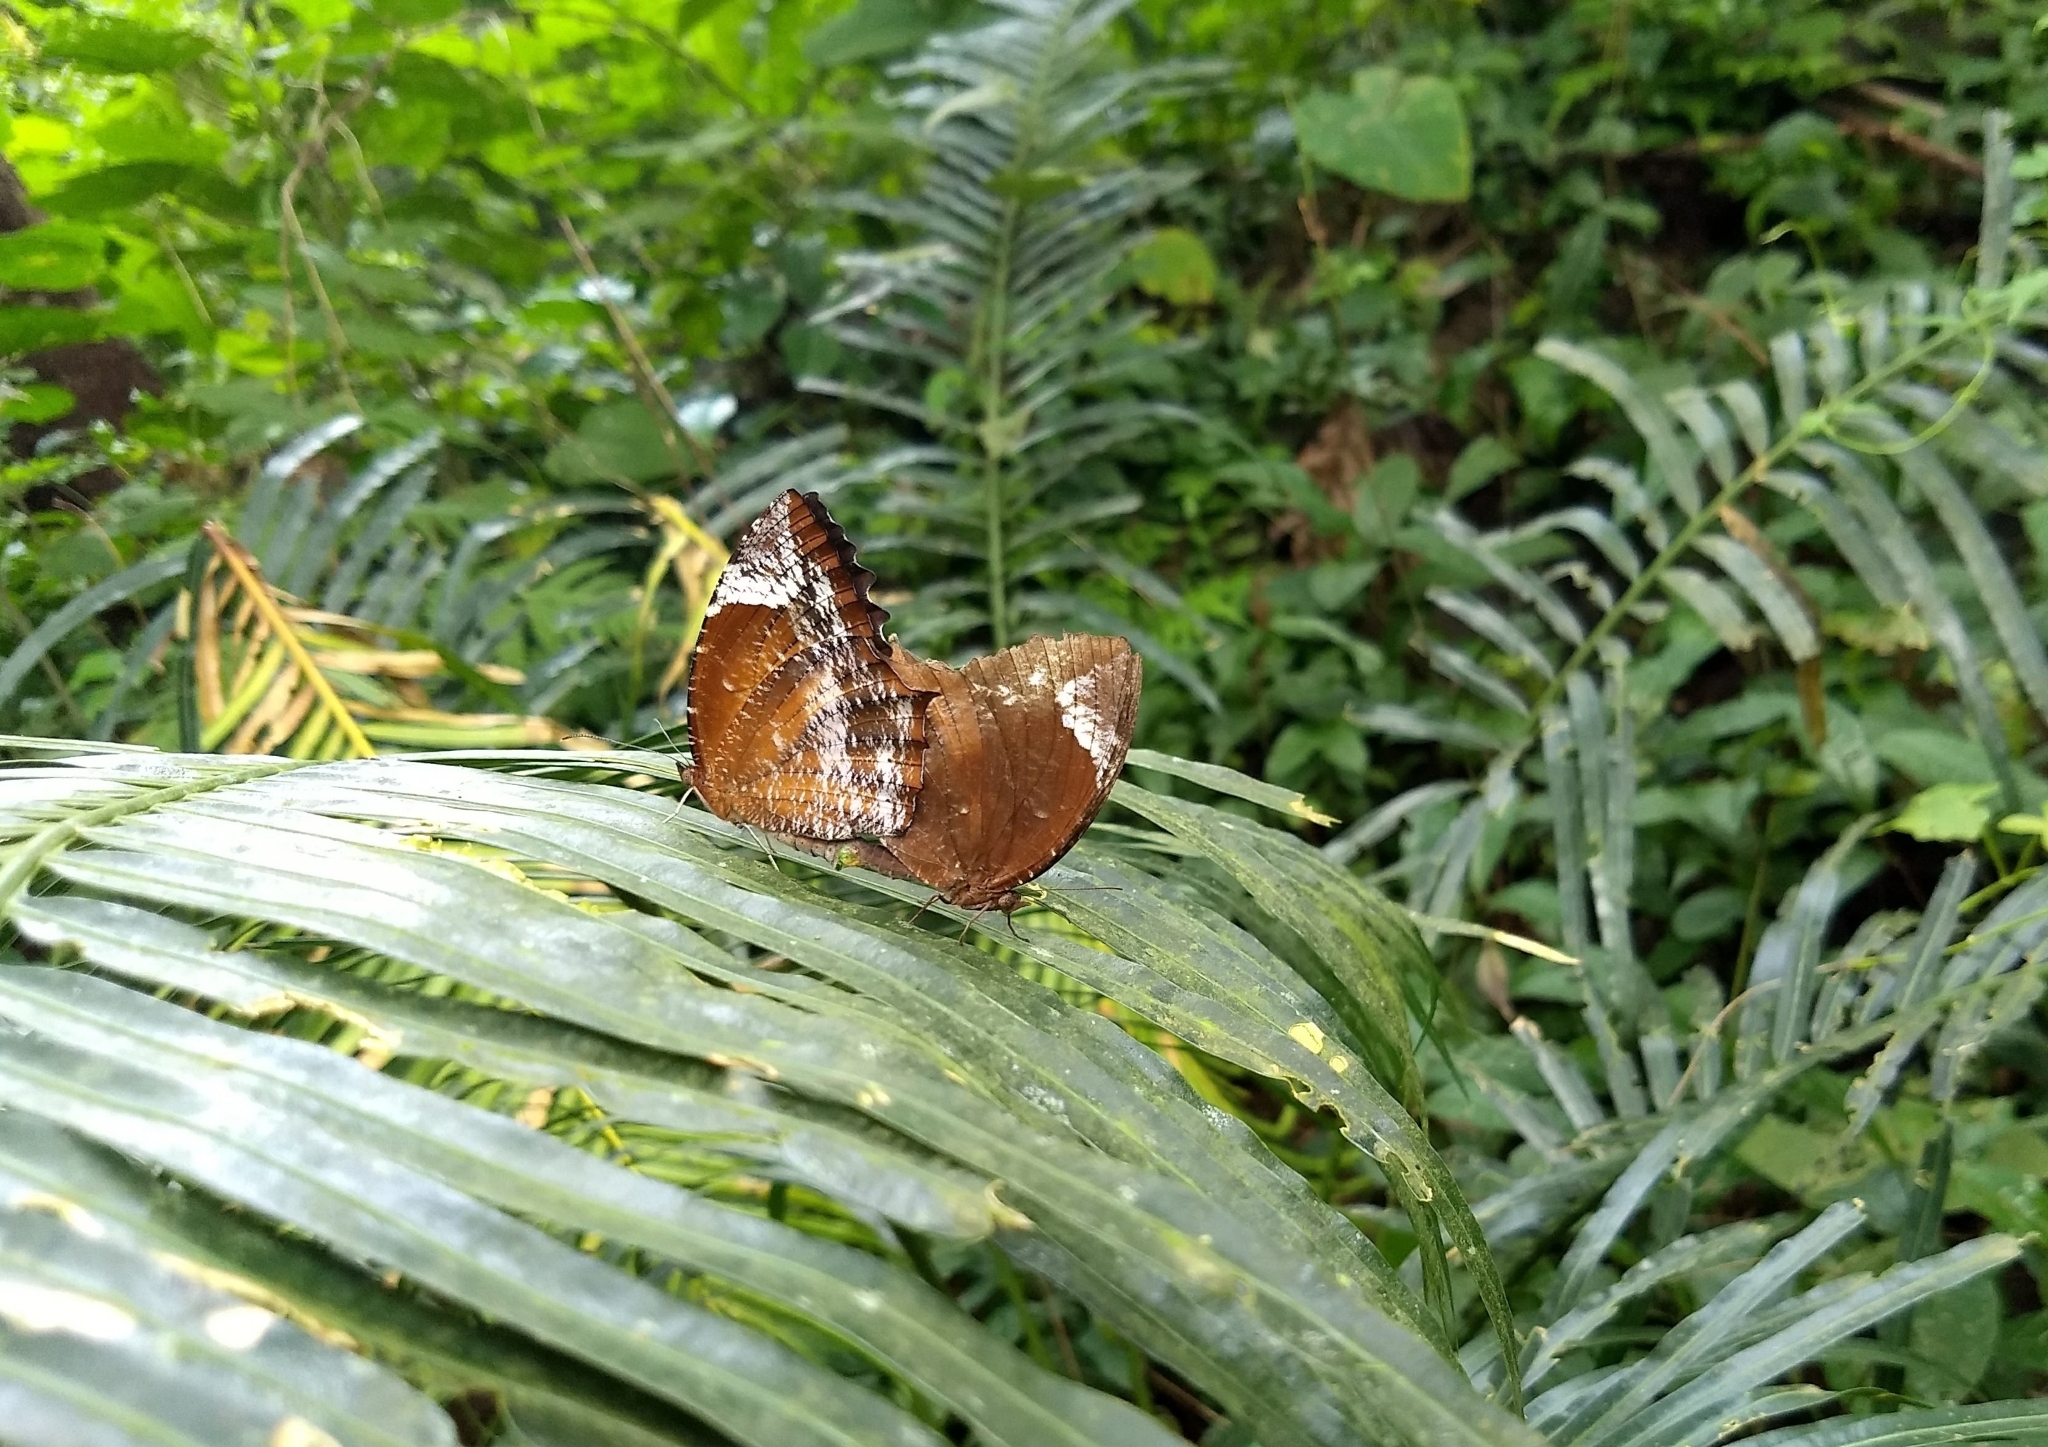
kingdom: Animalia
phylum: Arthropoda
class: Insecta
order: Lepidoptera
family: Nymphalidae
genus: Elymnias
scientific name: Elymnias caudata
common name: Tailed palmfly
